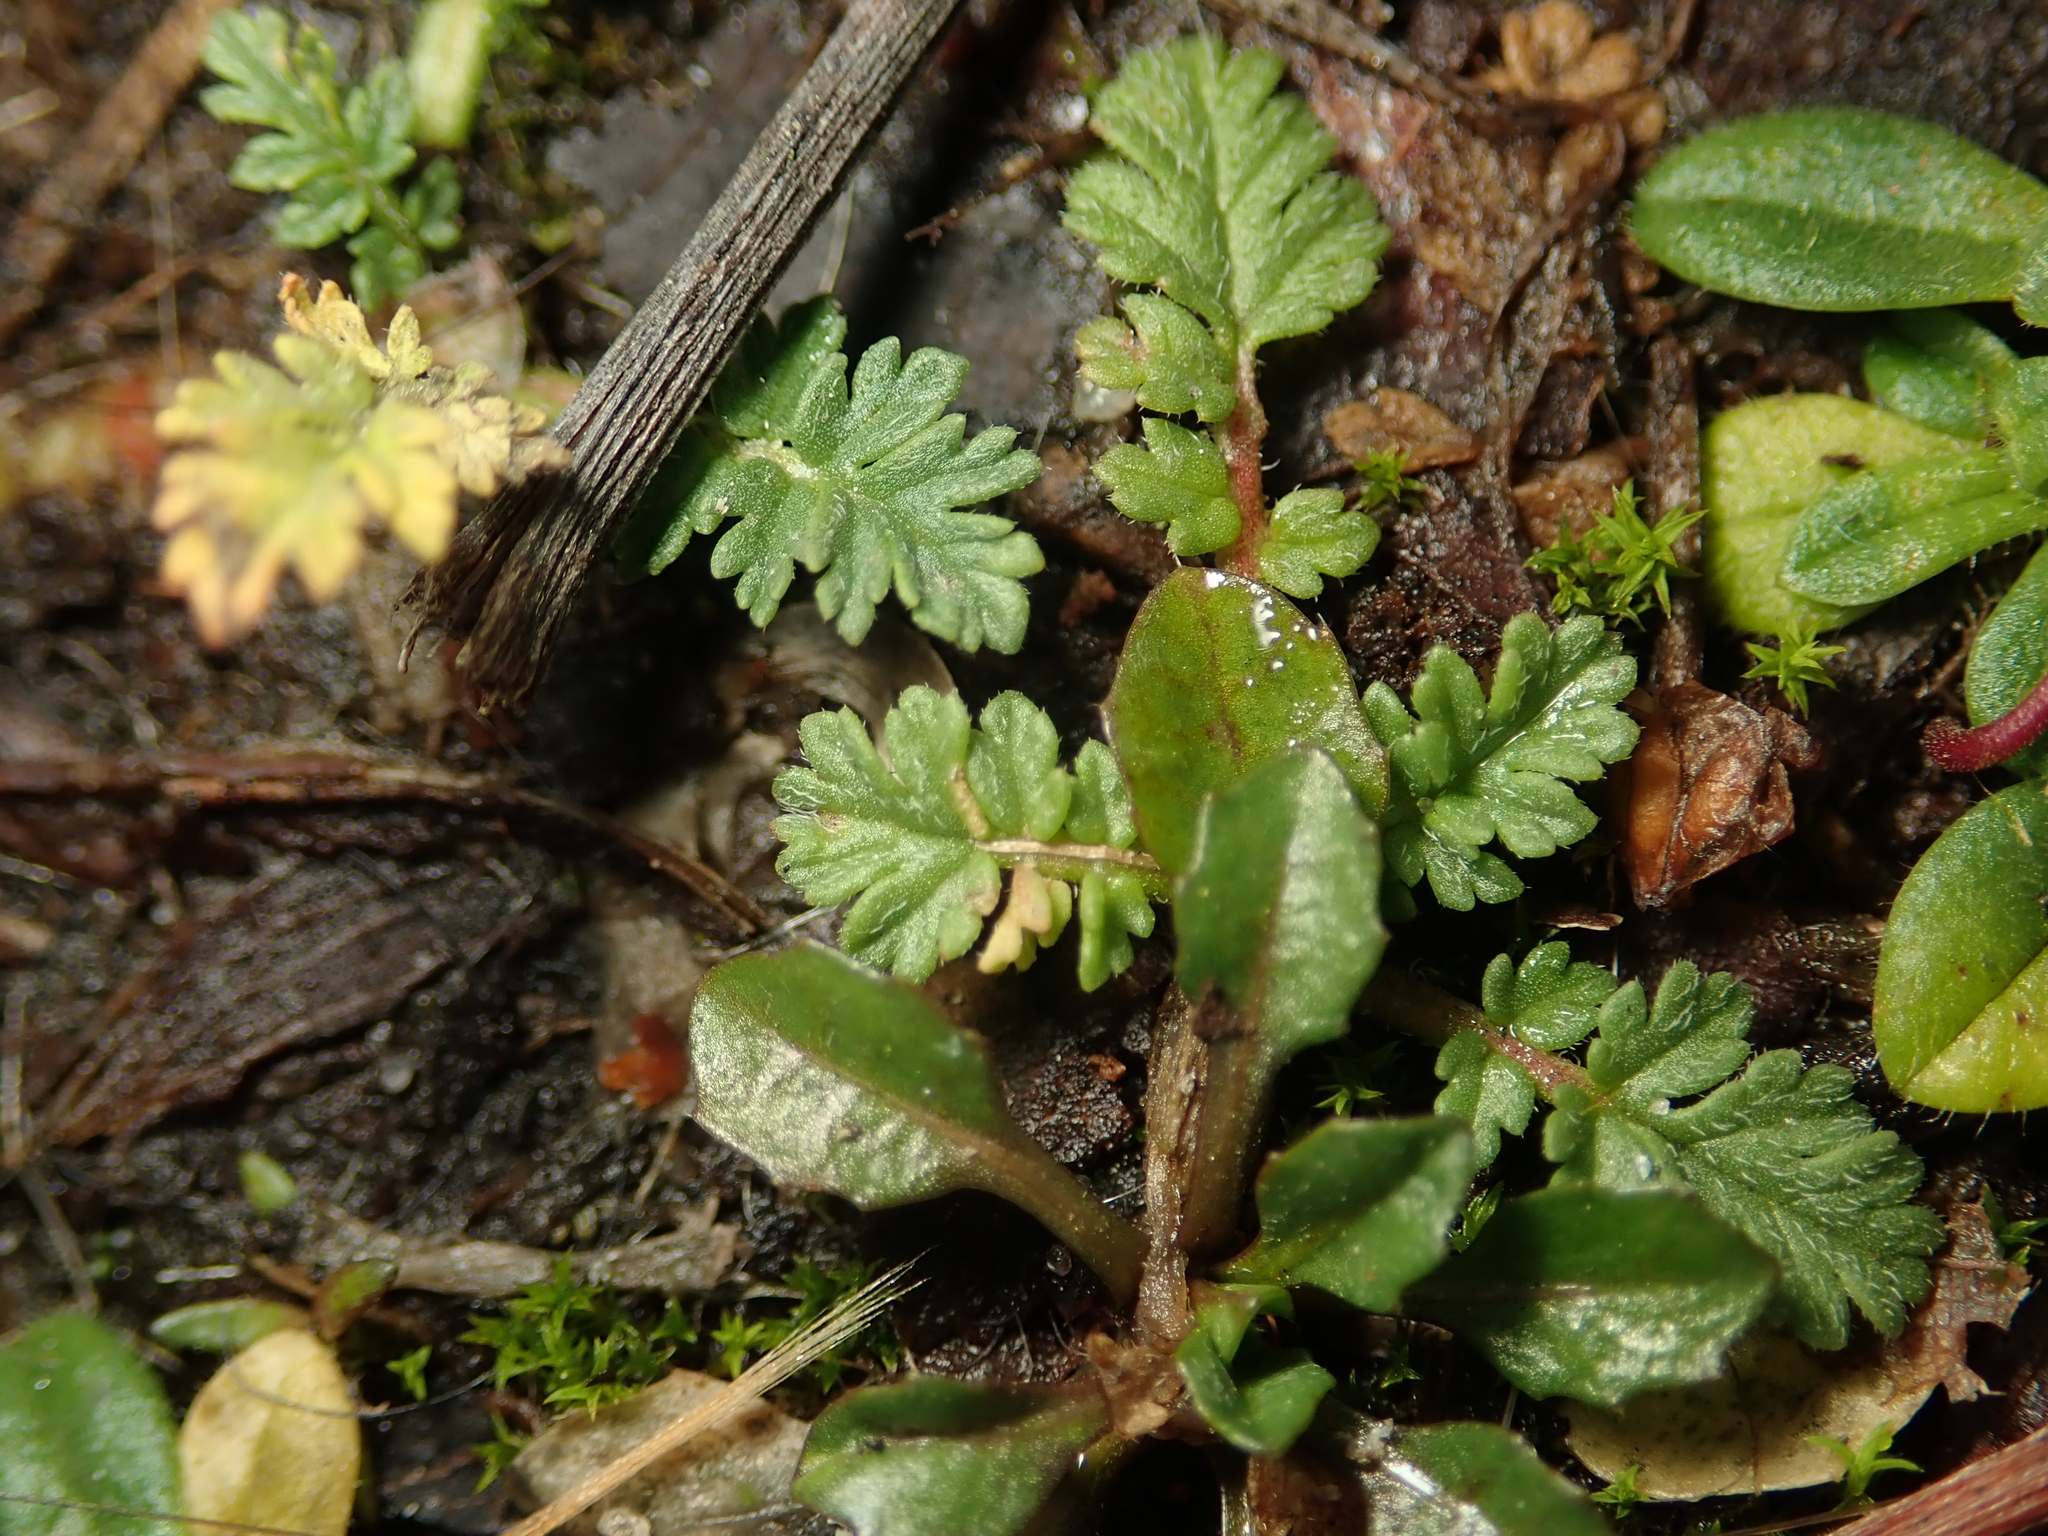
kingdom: Plantae
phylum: Tracheophyta
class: Magnoliopsida
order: Geraniales
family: Geraniaceae
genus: Erodium
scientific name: Erodium cicutarium
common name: Common stork's-bill
